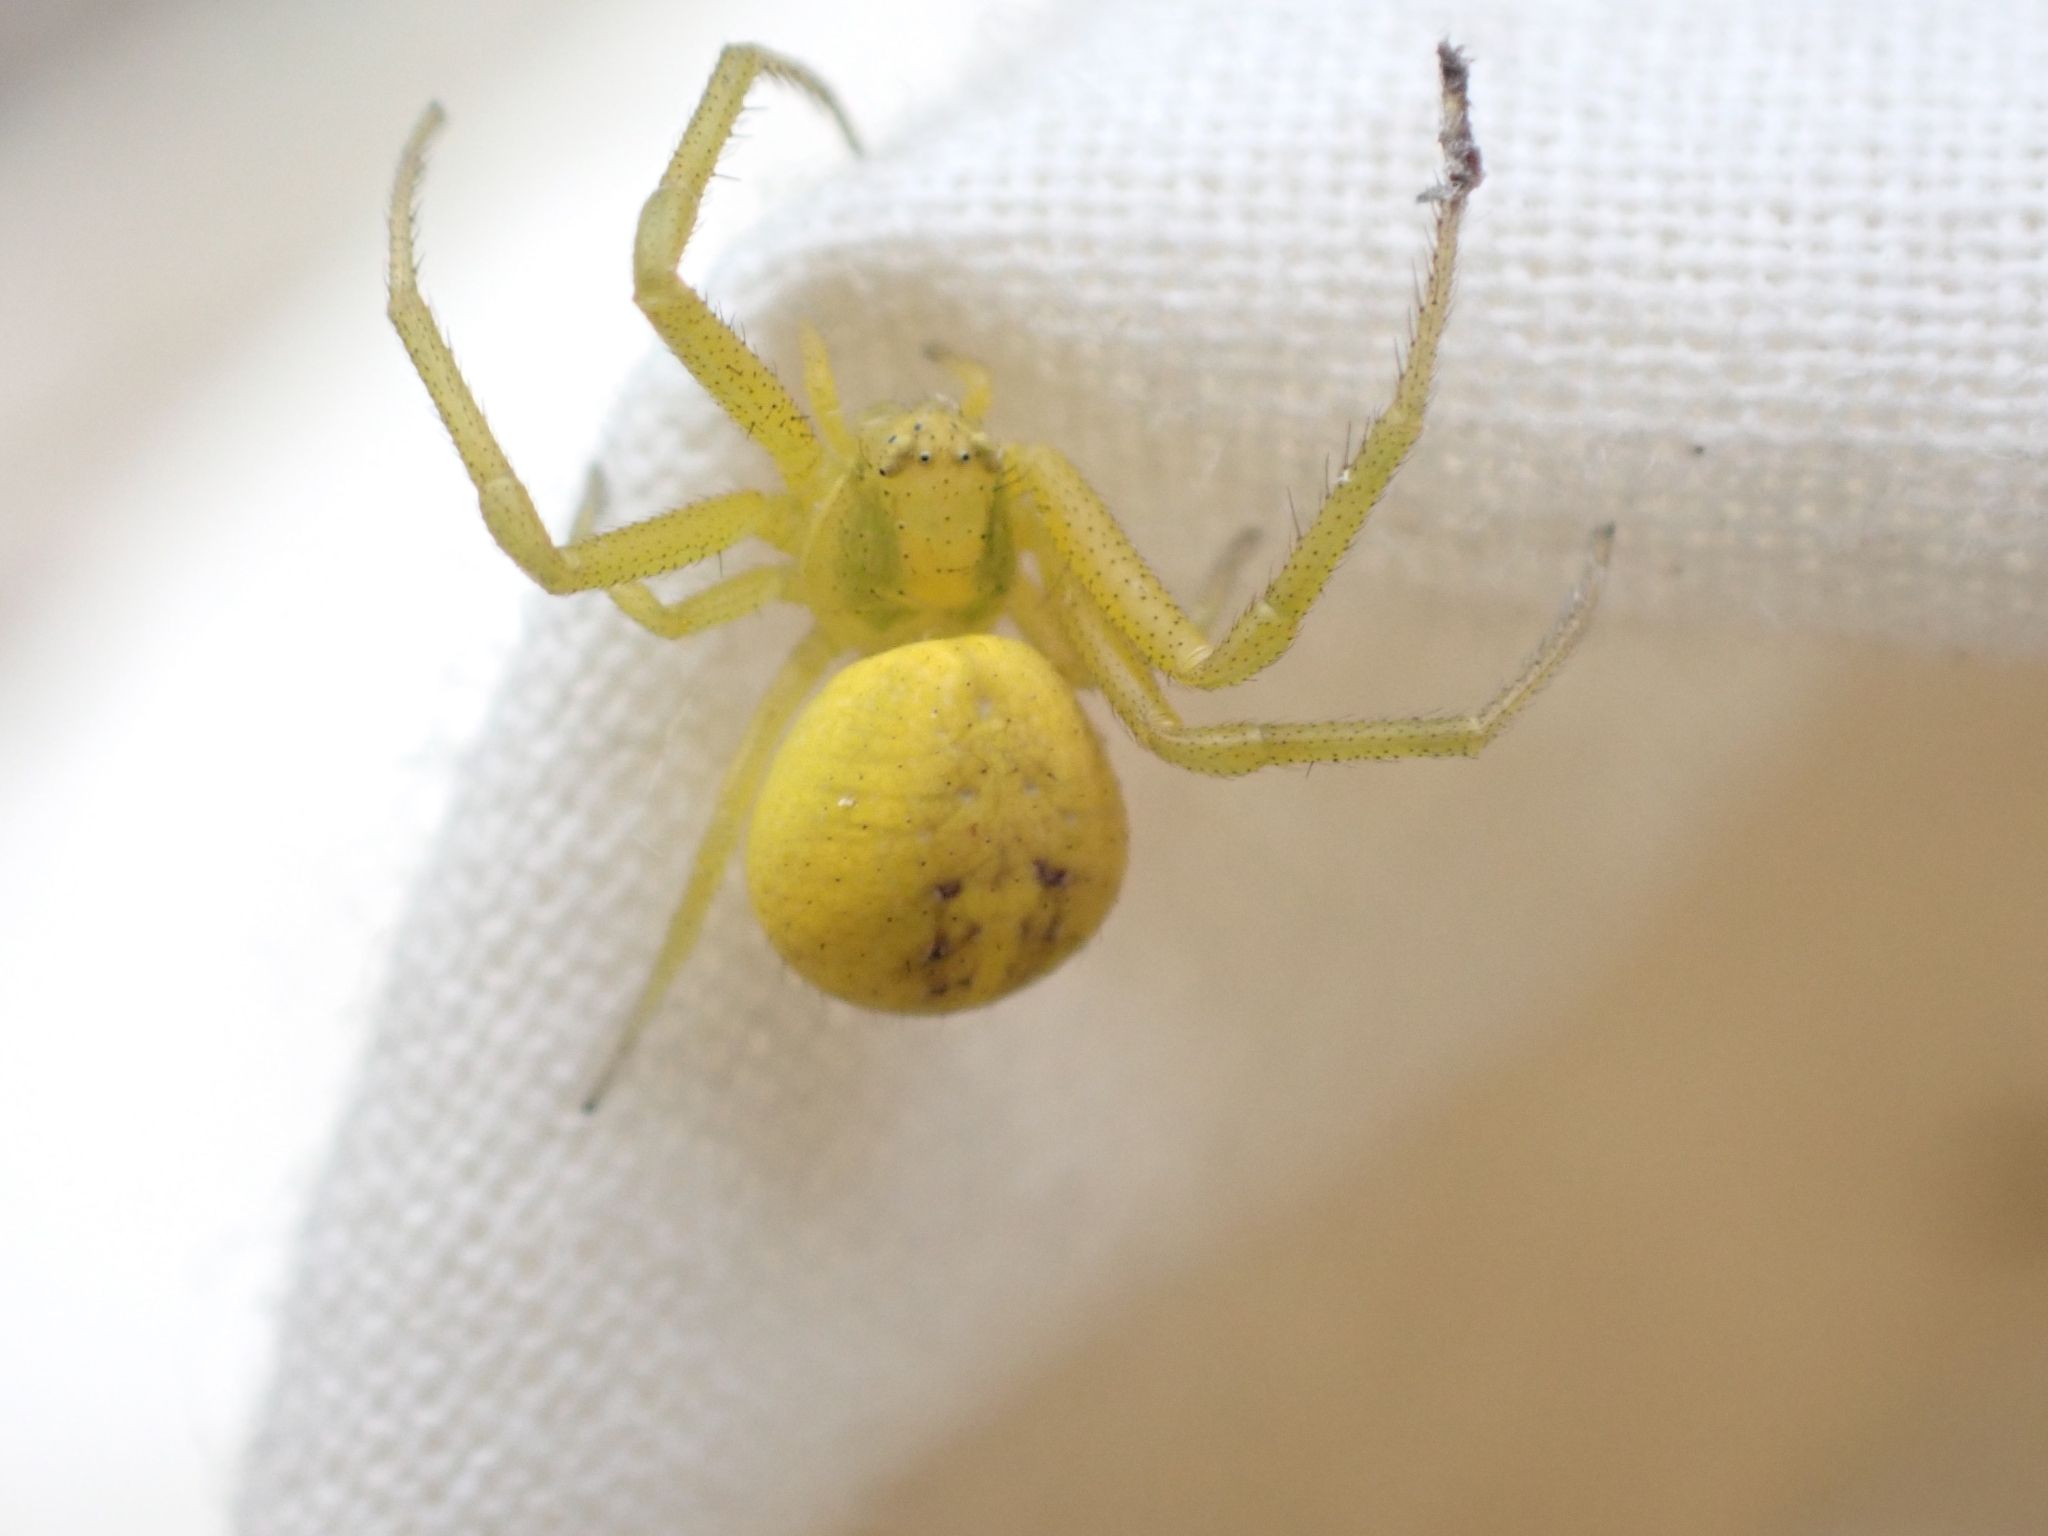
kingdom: Animalia
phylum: Arthropoda
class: Arachnida
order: Araneae
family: Thomisidae
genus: Misumena
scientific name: Misumena vatia
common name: Goldenrod crab spider
